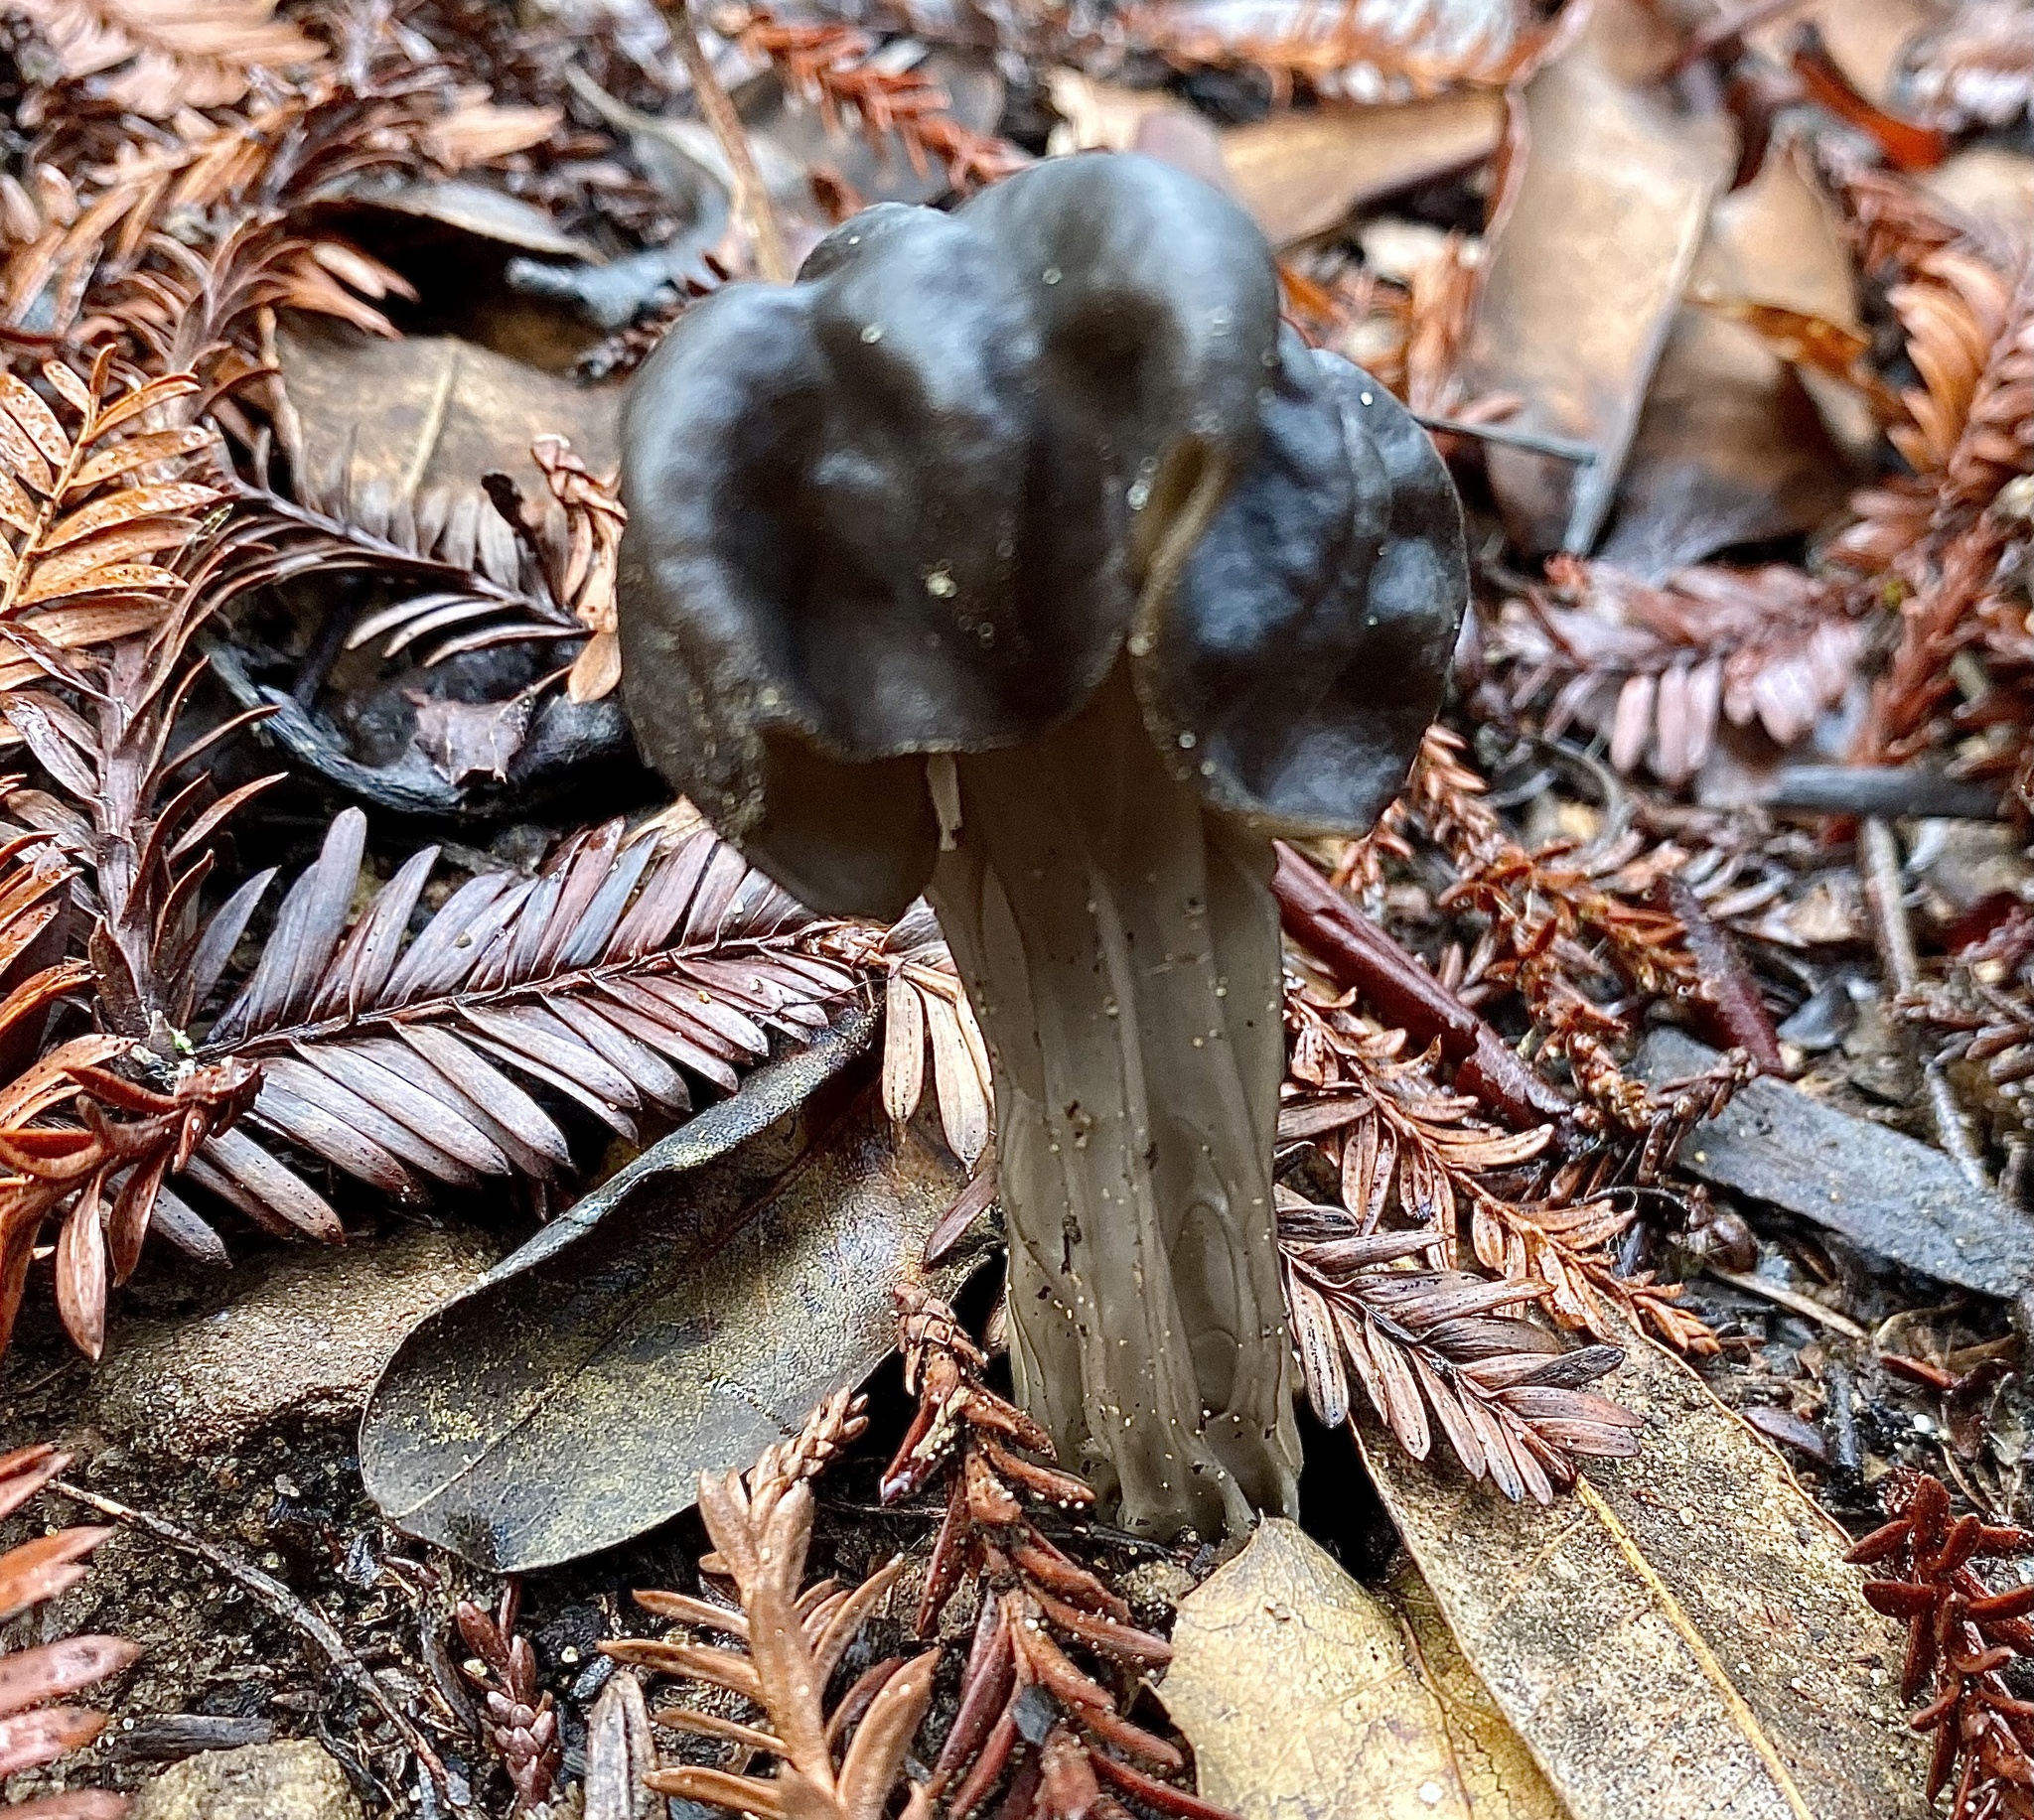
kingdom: Fungi
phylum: Ascomycota
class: Pezizomycetes
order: Pezizales
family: Helvellaceae
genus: Helvella
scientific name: Helvella dryophila
